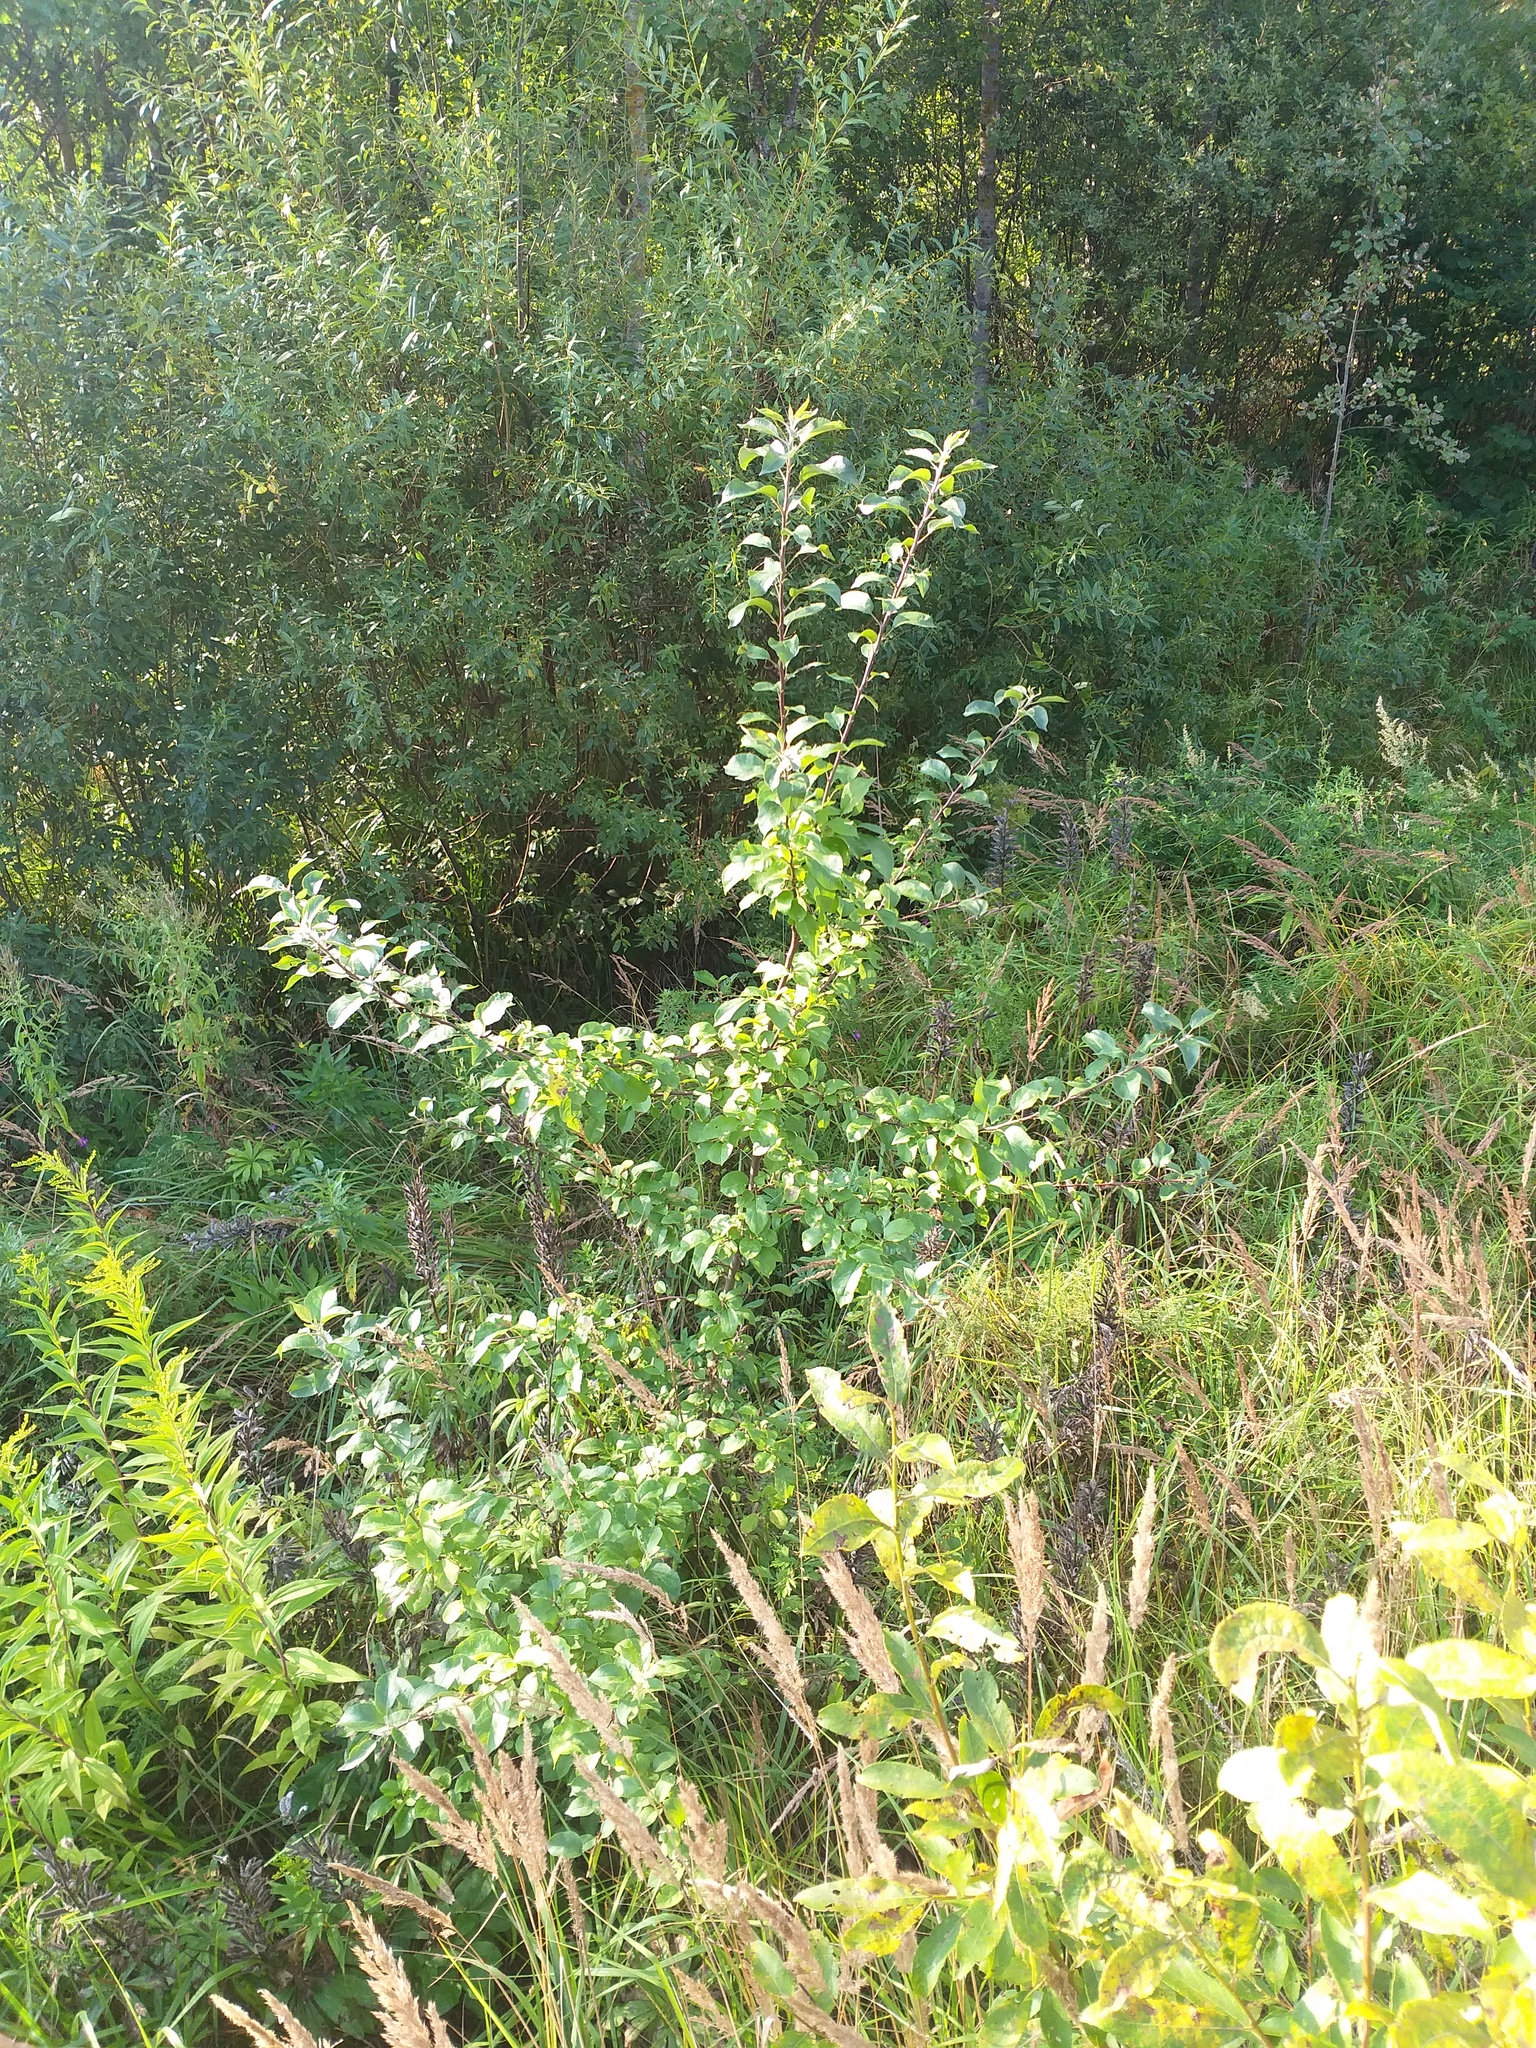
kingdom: Plantae
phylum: Tracheophyta
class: Magnoliopsida
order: Rosales
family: Rosaceae
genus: Malus
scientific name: Malus domestica
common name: Apple
